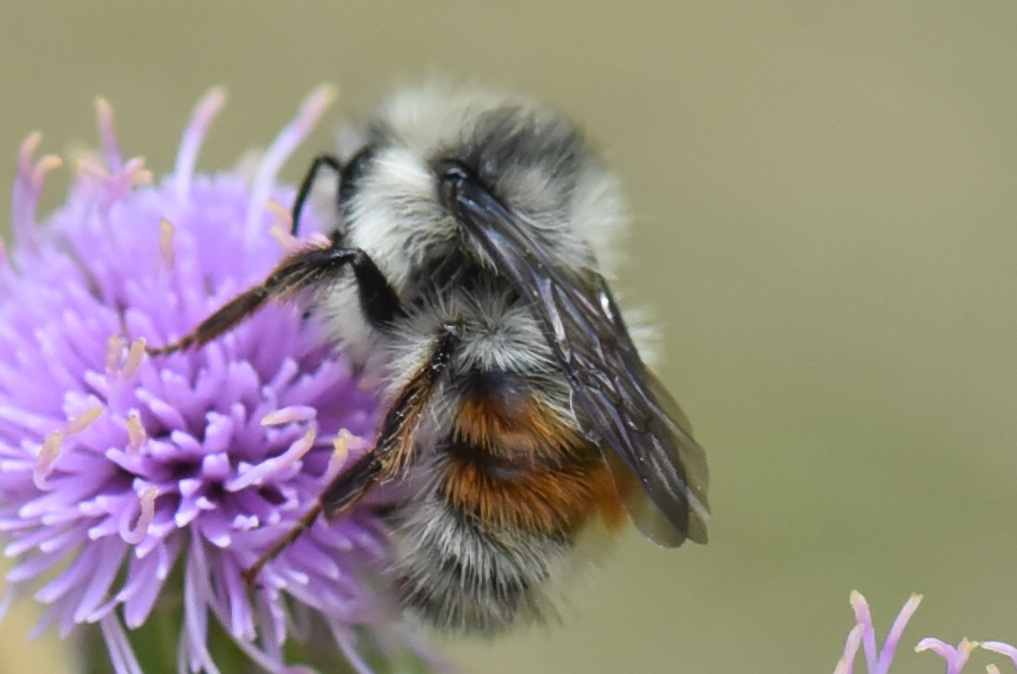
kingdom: Animalia
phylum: Arthropoda
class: Insecta
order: Hymenoptera
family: Apidae
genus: Bombus
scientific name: Bombus vancouverensis
